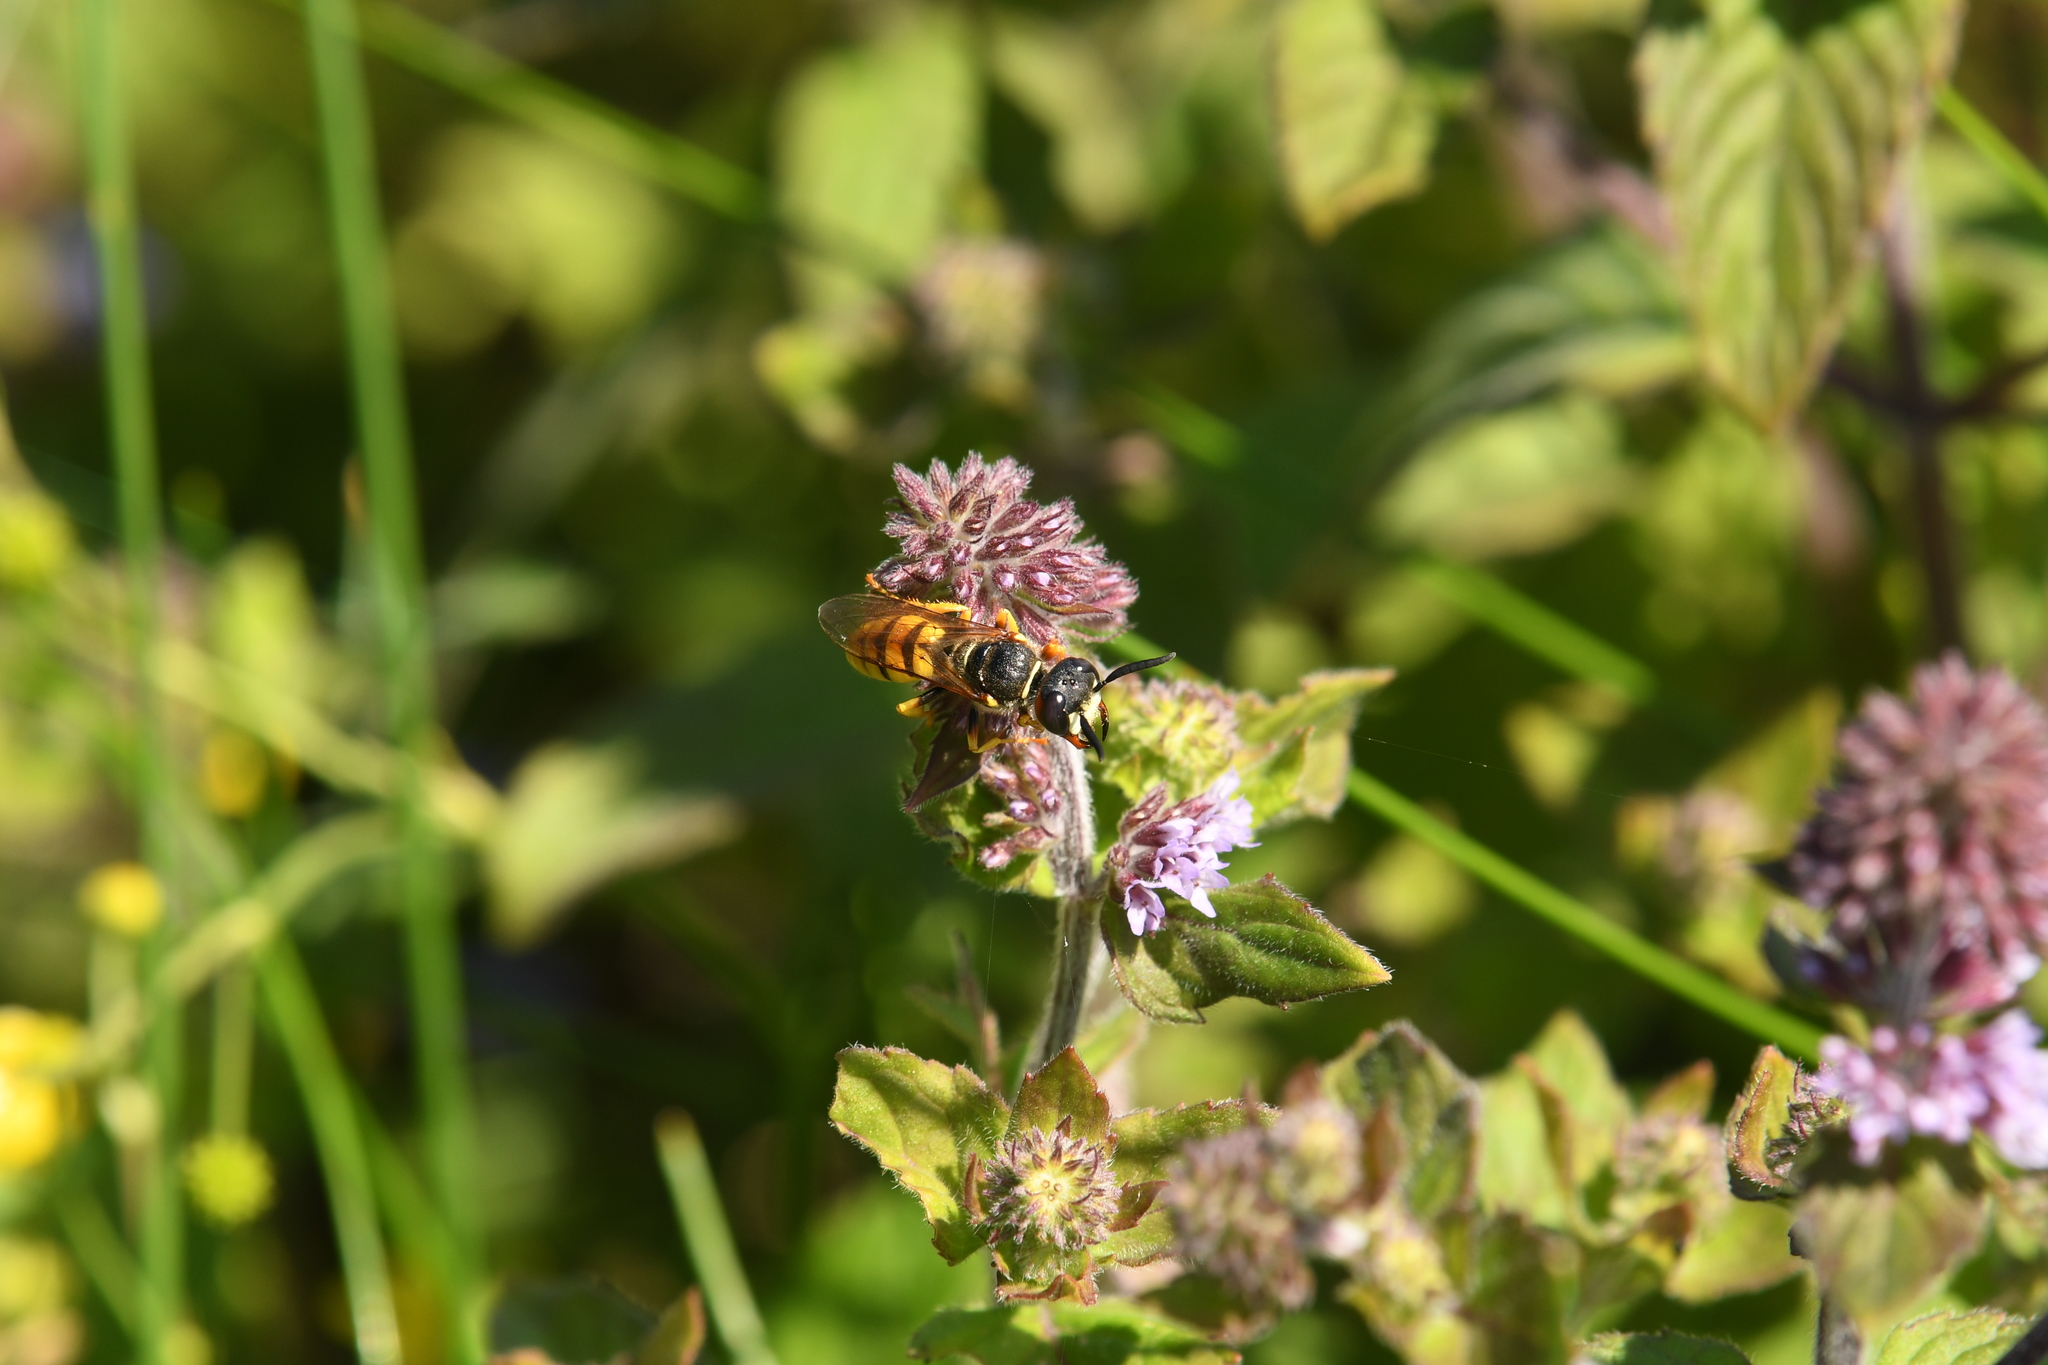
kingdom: Animalia
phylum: Arthropoda
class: Insecta
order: Hymenoptera
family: Crabronidae
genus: Philanthus
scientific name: Philanthus triangulum
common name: Bee wolf
